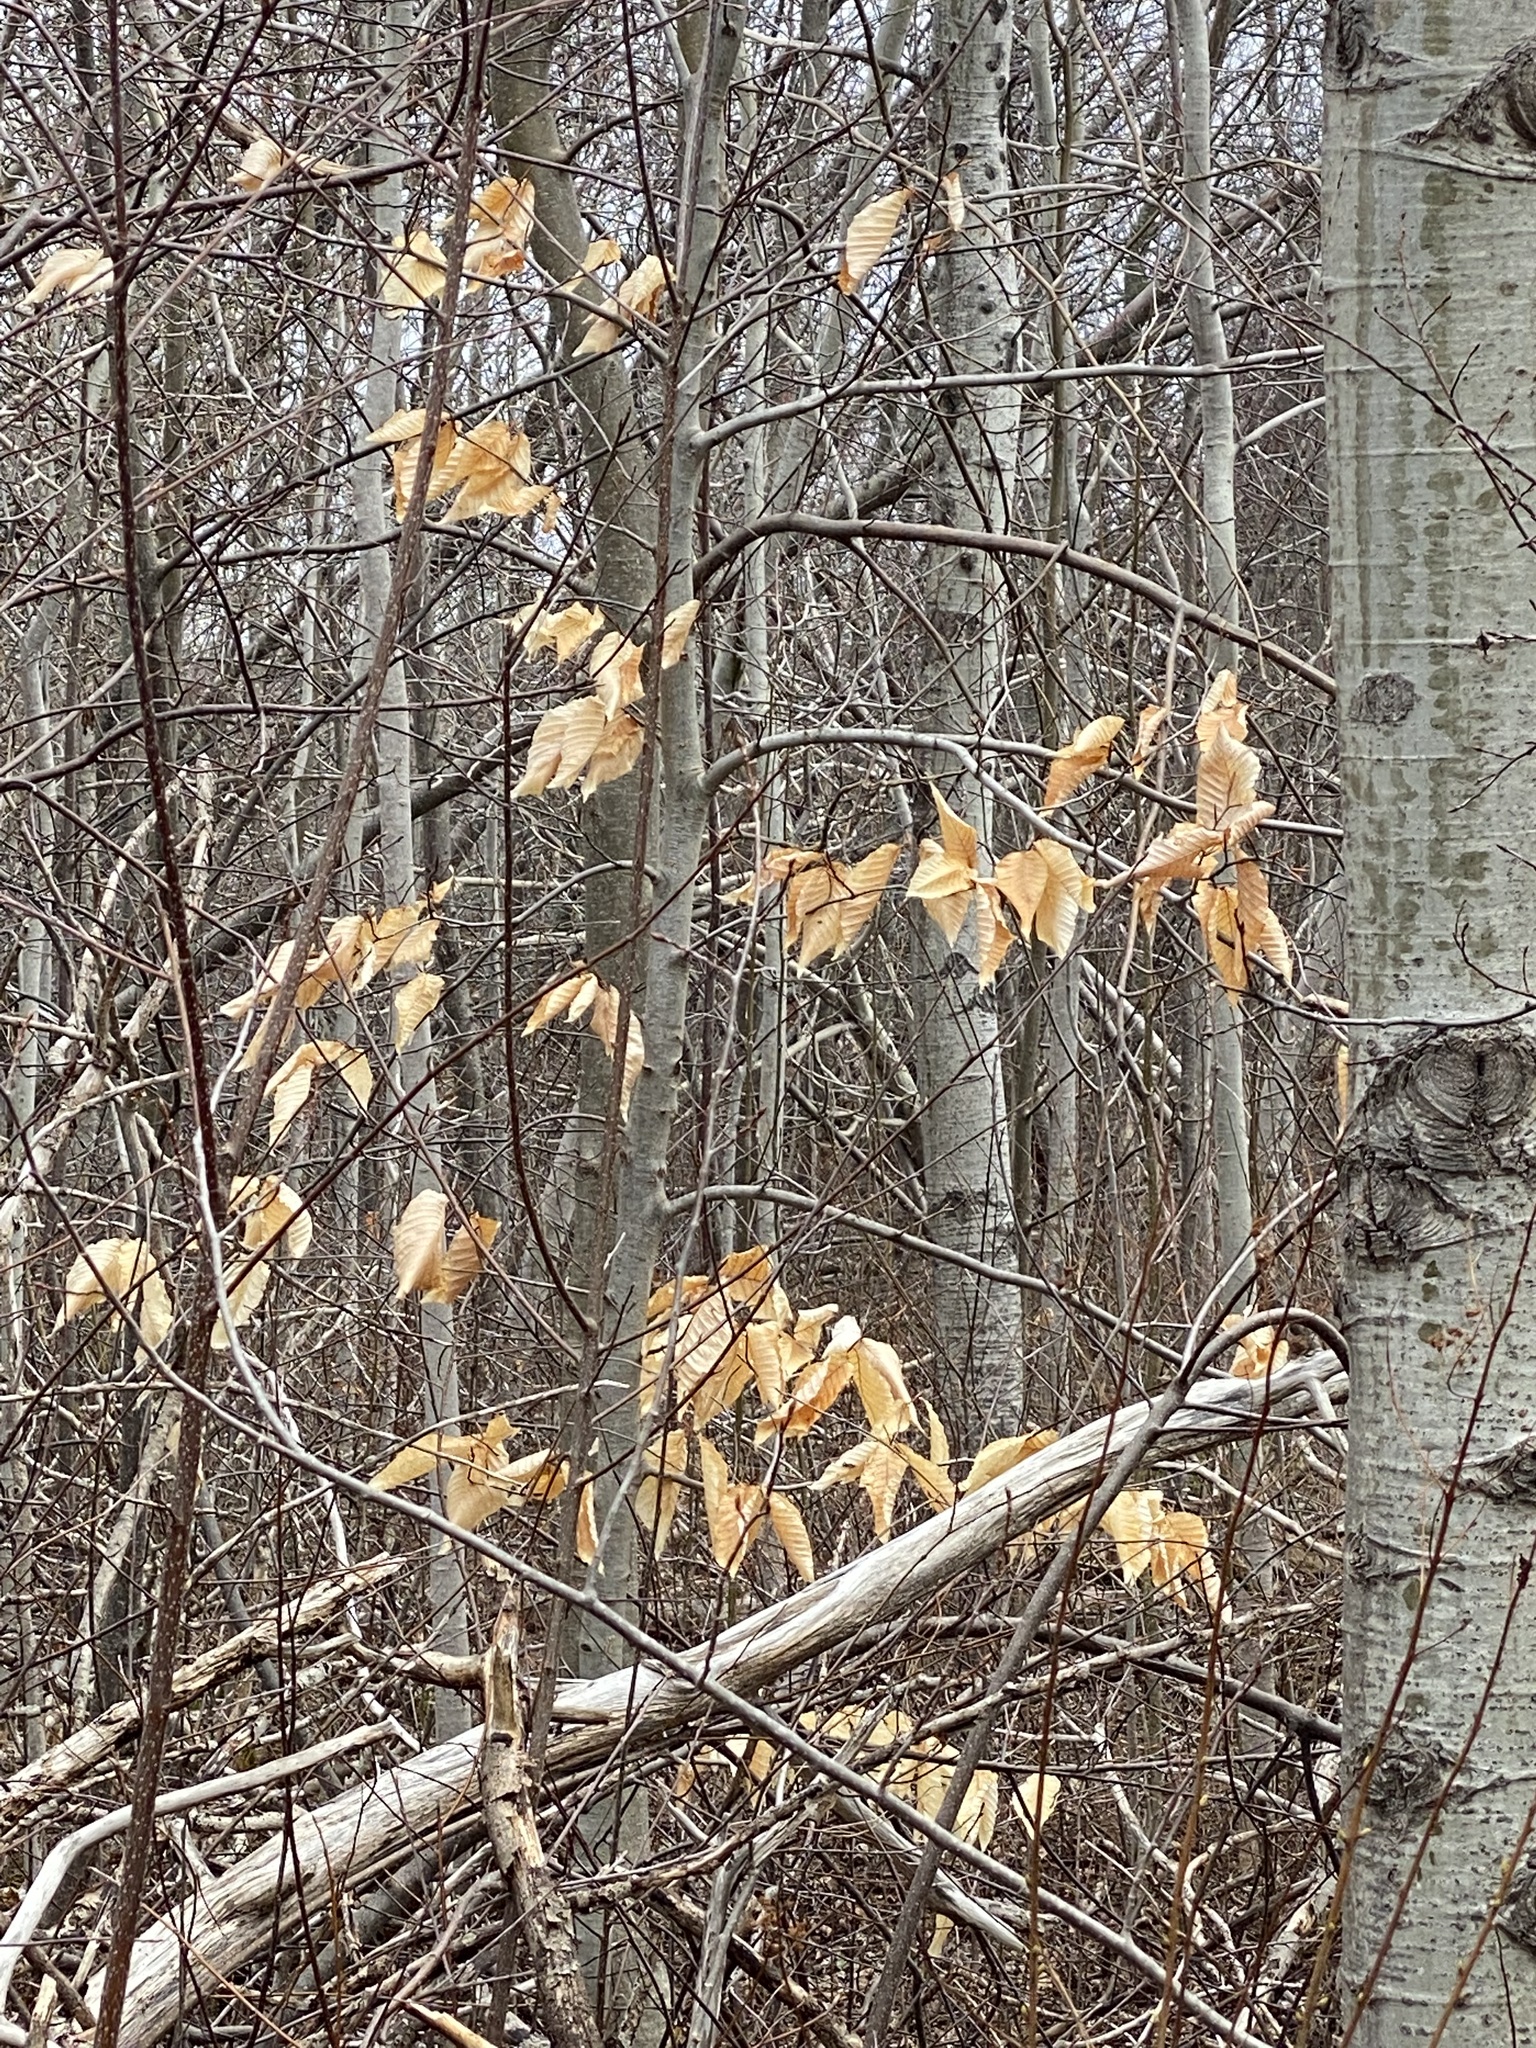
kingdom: Plantae
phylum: Tracheophyta
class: Magnoliopsida
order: Fagales
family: Fagaceae
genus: Fagus
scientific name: Fagus grandifolia
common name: American beech
